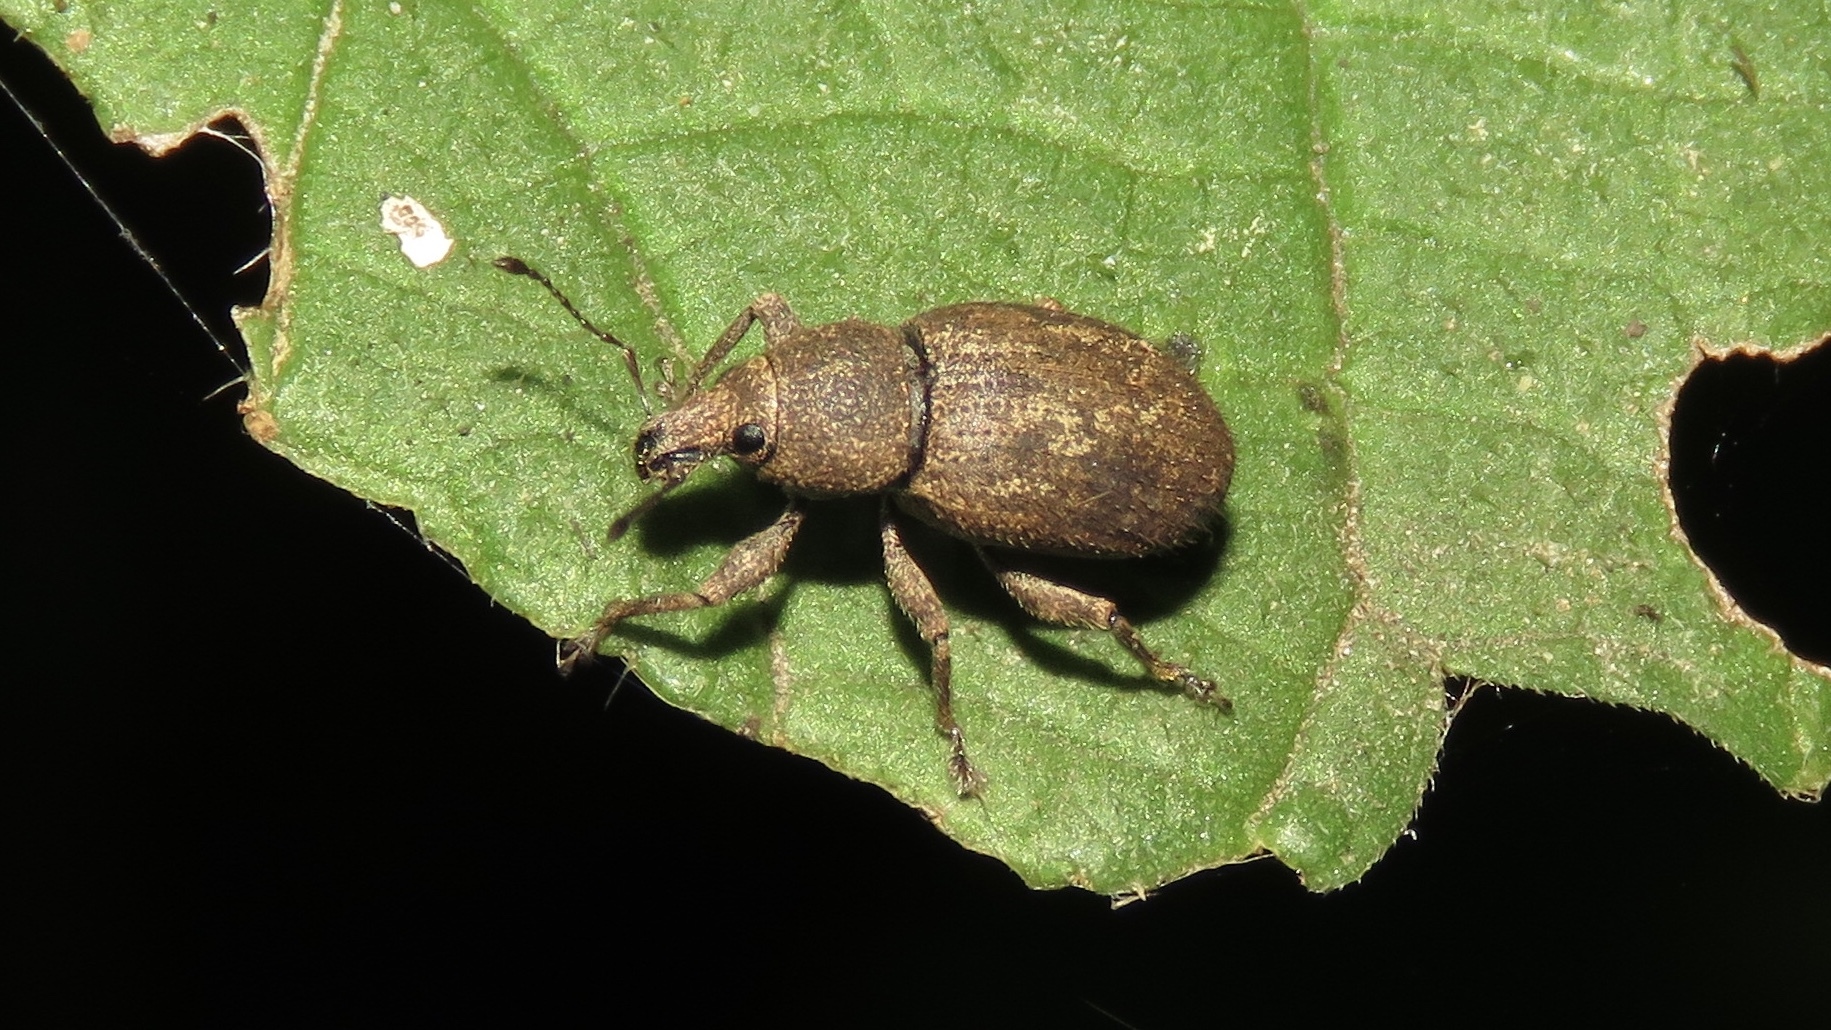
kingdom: Animalia
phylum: Arthropoda
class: Insecta
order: Coleoptera
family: Curculionidae
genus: Anametis
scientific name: Anametis granulata
